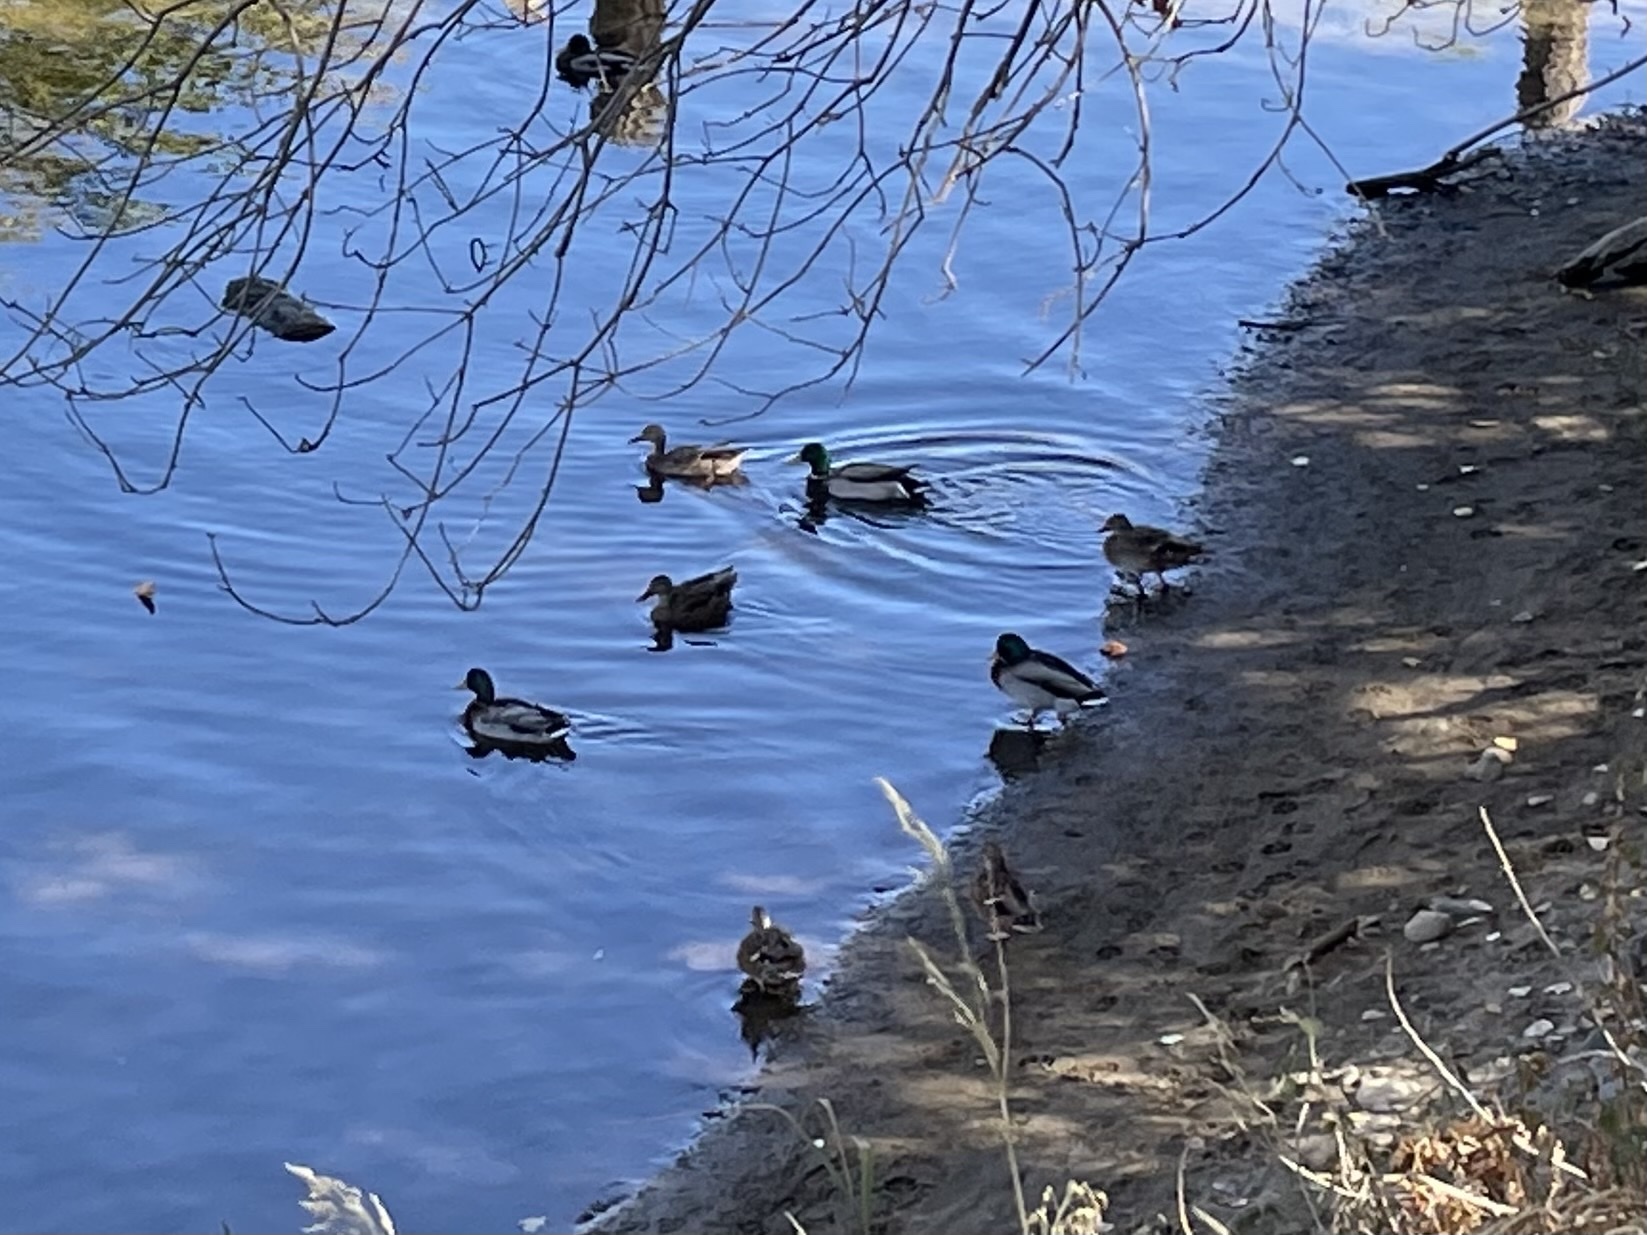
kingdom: Animalia
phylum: Chordata
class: Aves
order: Anseriformes
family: Anatidae
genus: Anas
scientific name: Anas platyrhynchos
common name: Mallard
